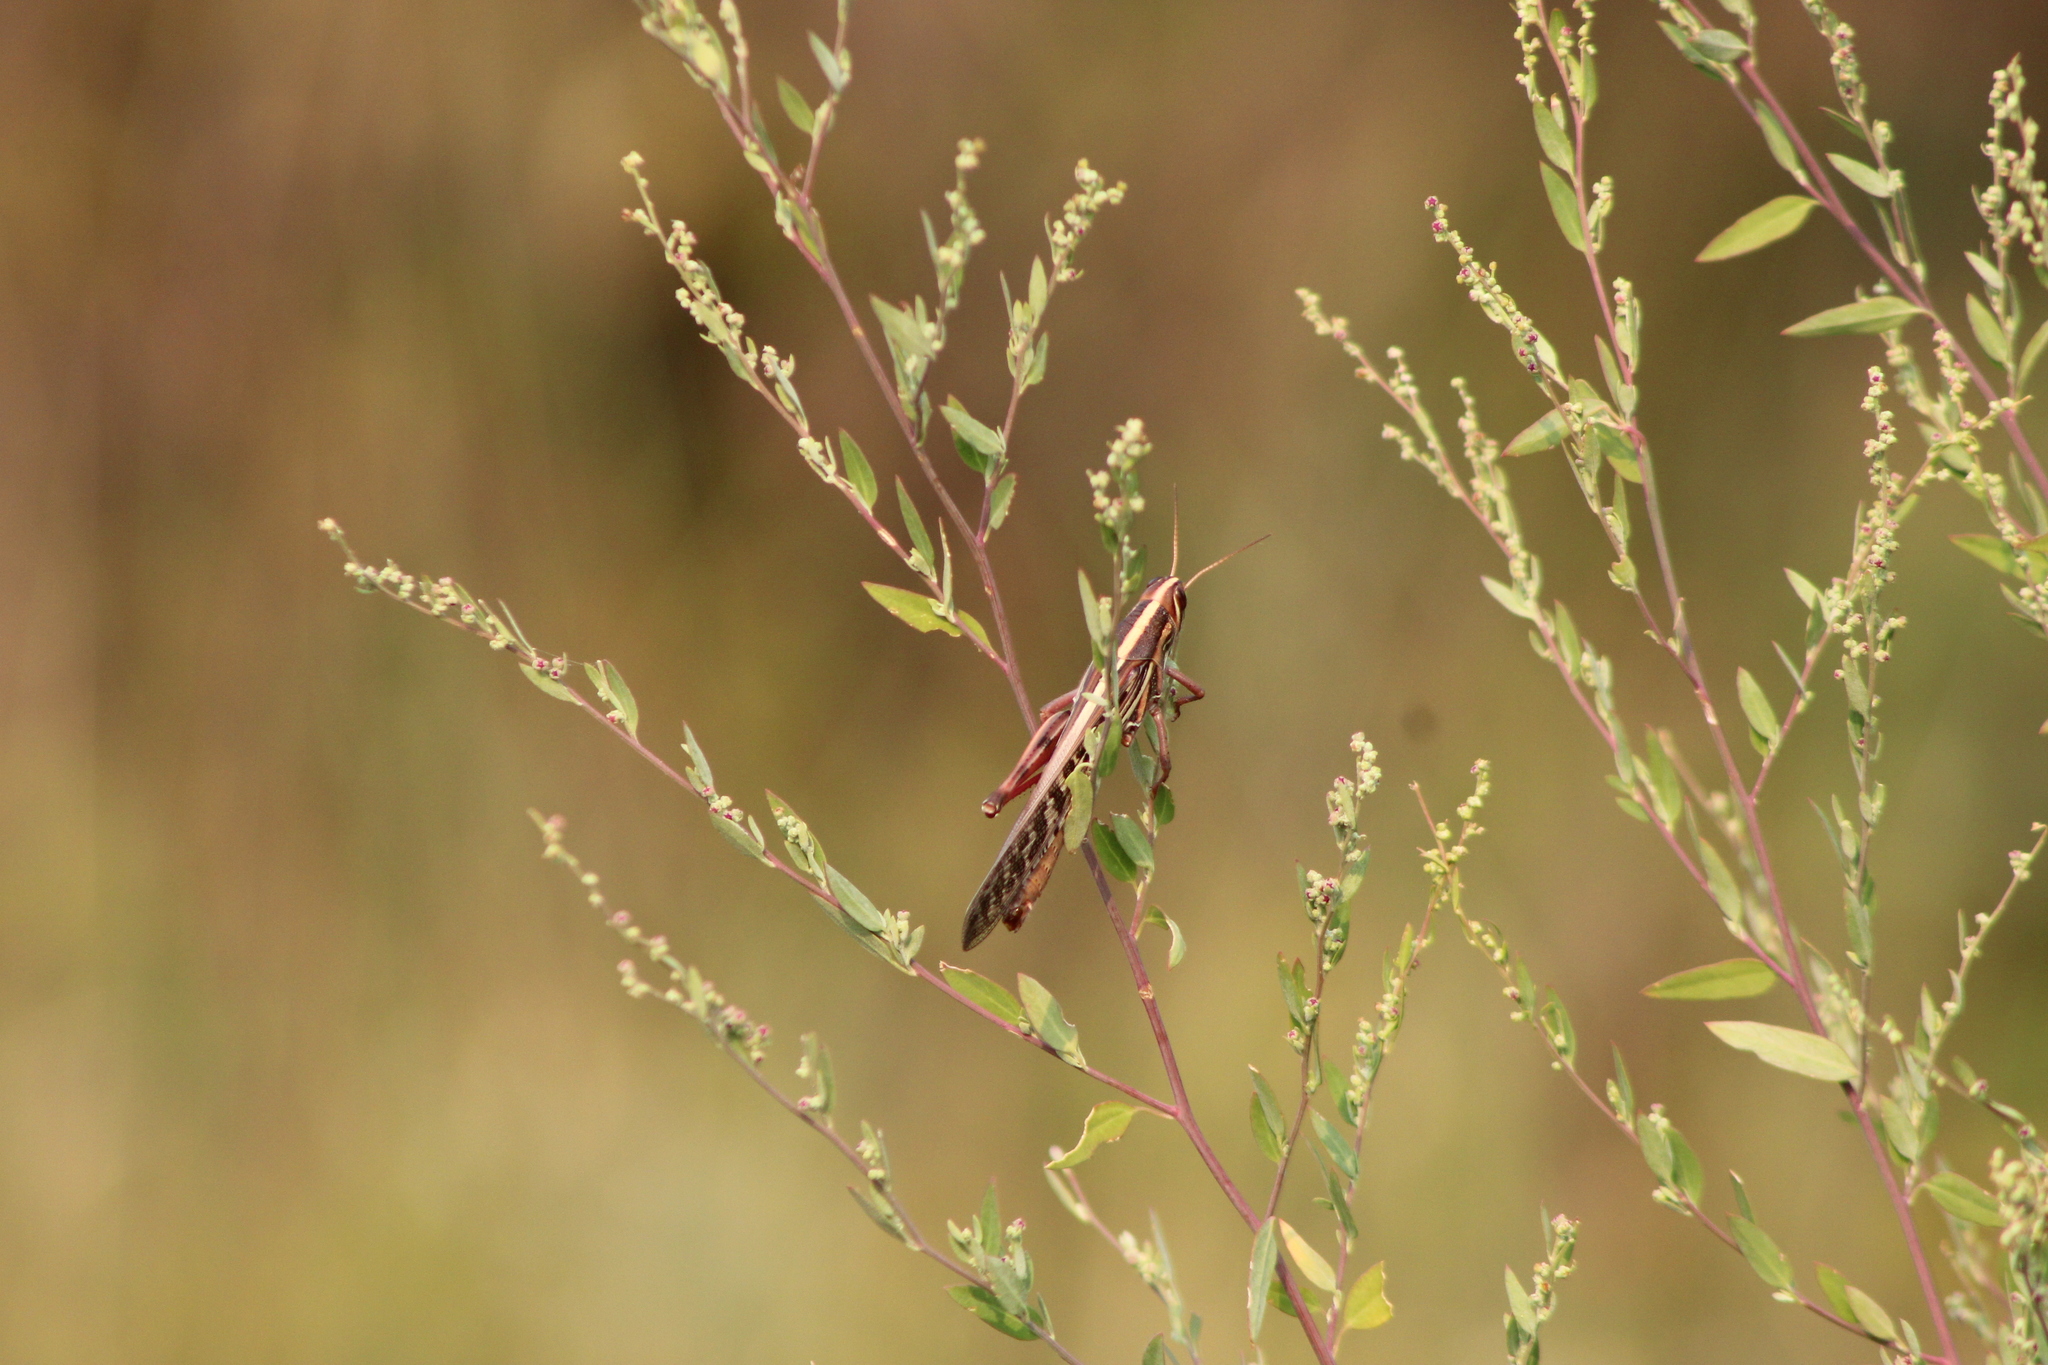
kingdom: Animalia
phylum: Arthropoda
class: Insecta
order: Orthoptera
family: Acrididae
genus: Schistocerca
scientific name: Schistocerca americana
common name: American bird locust
